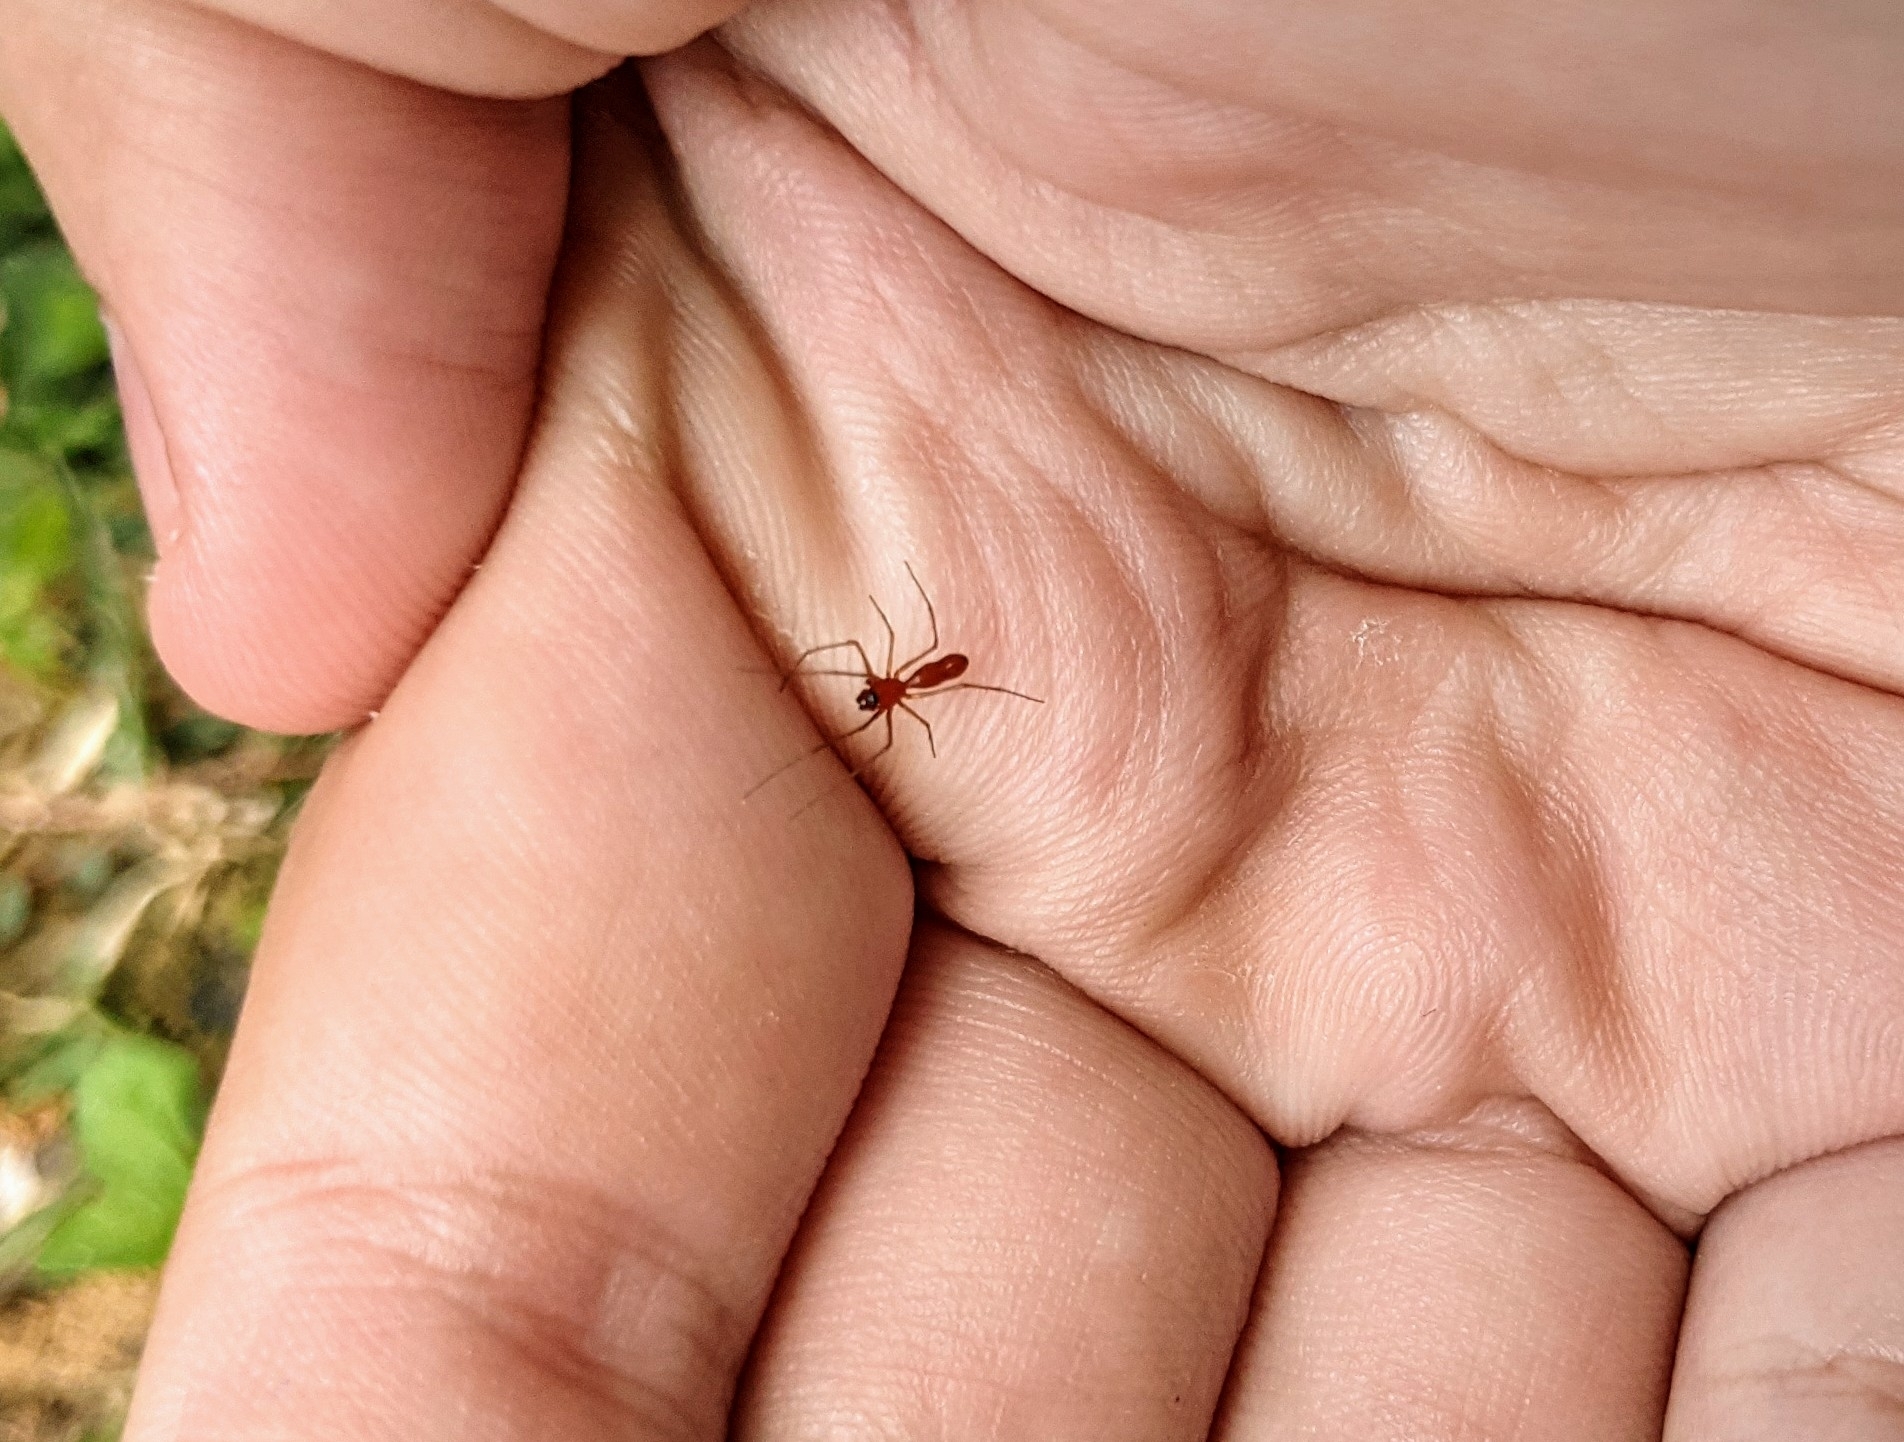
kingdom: Animalia
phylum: Arthropoda
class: Arachnida
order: Araneae
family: Linyphiidae
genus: Florinda
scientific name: Florinda coccinea
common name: Black-tailed red sheetweaver
